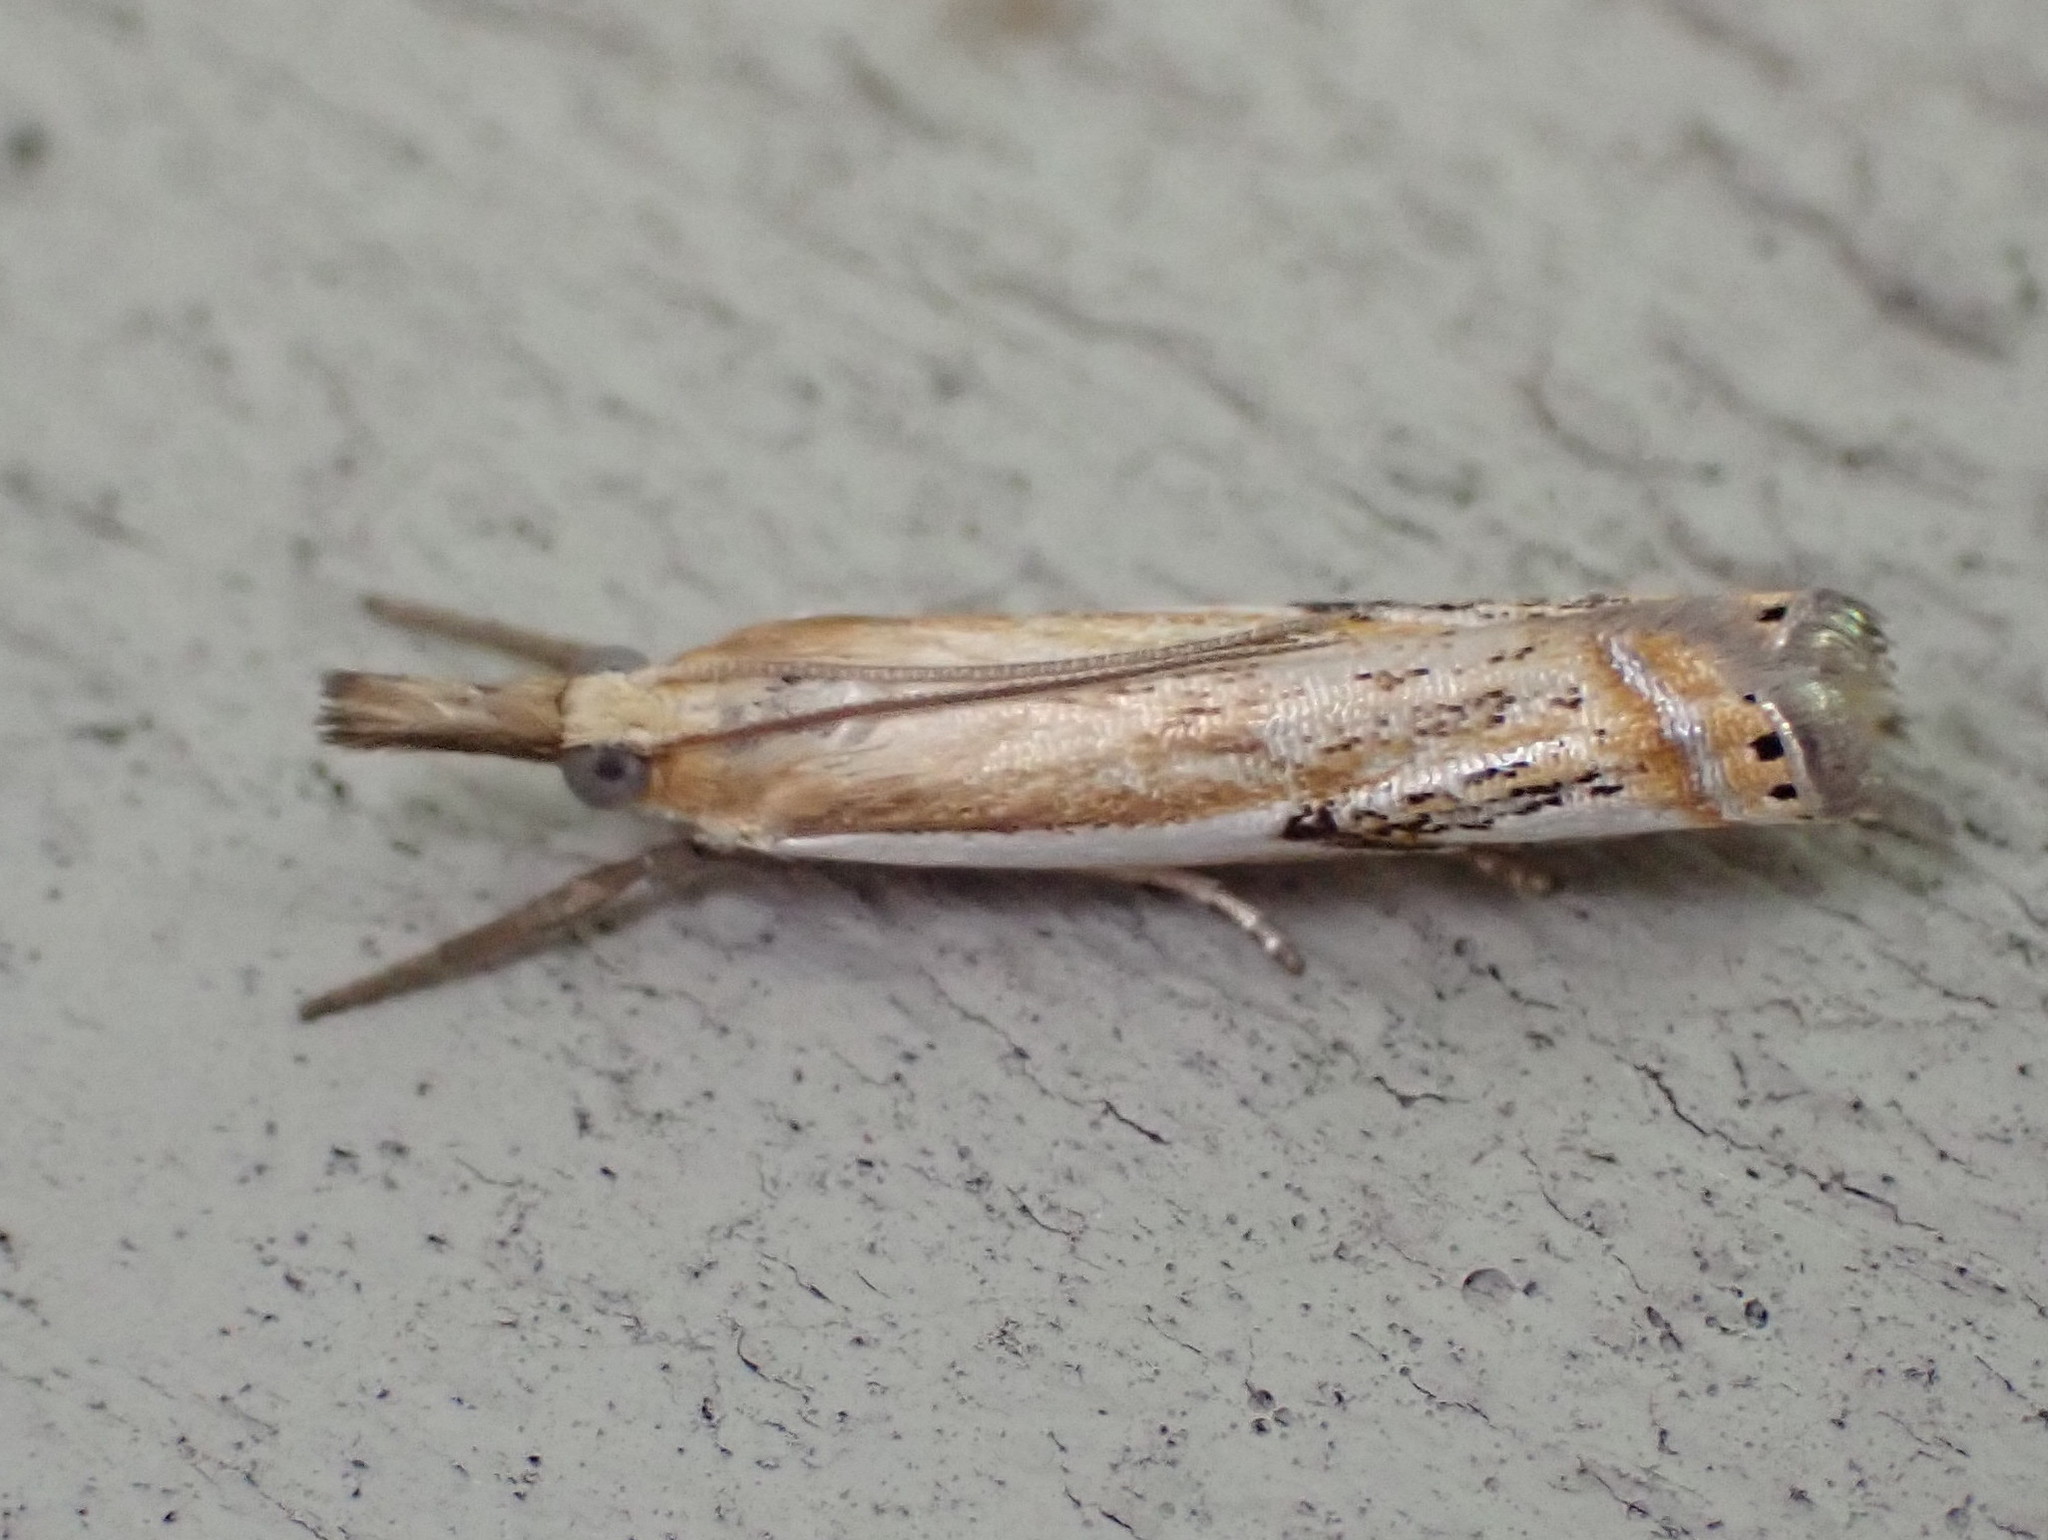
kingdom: Animalia
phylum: Arthropoda
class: Insecta
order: Lepidoptera
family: Crambidae
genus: Crambus
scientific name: Crambus agitatellus
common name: Double-banded grass-veneer
